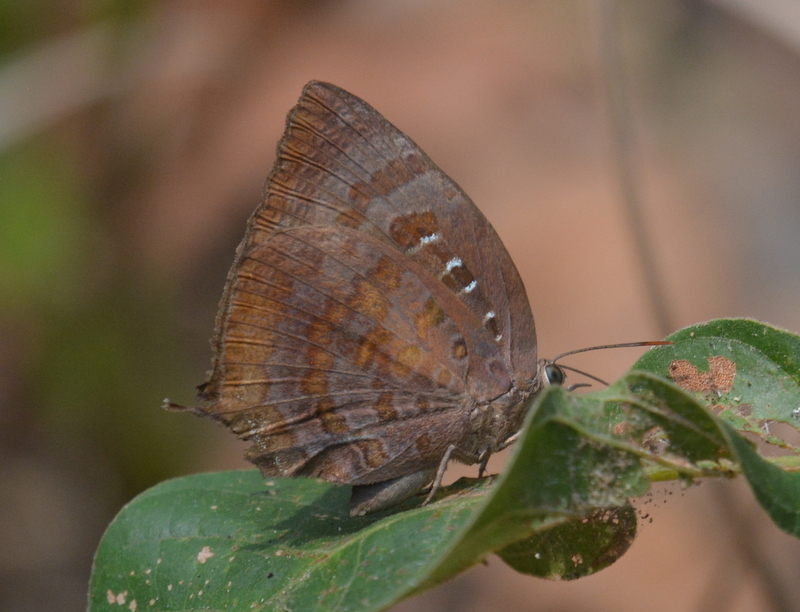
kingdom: Animalia
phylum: Arthropoda
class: Insecta
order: Lepidoptera
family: Lycaenidae
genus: Arhopala
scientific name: Arhopala centaurus
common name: Dull oak-blue
